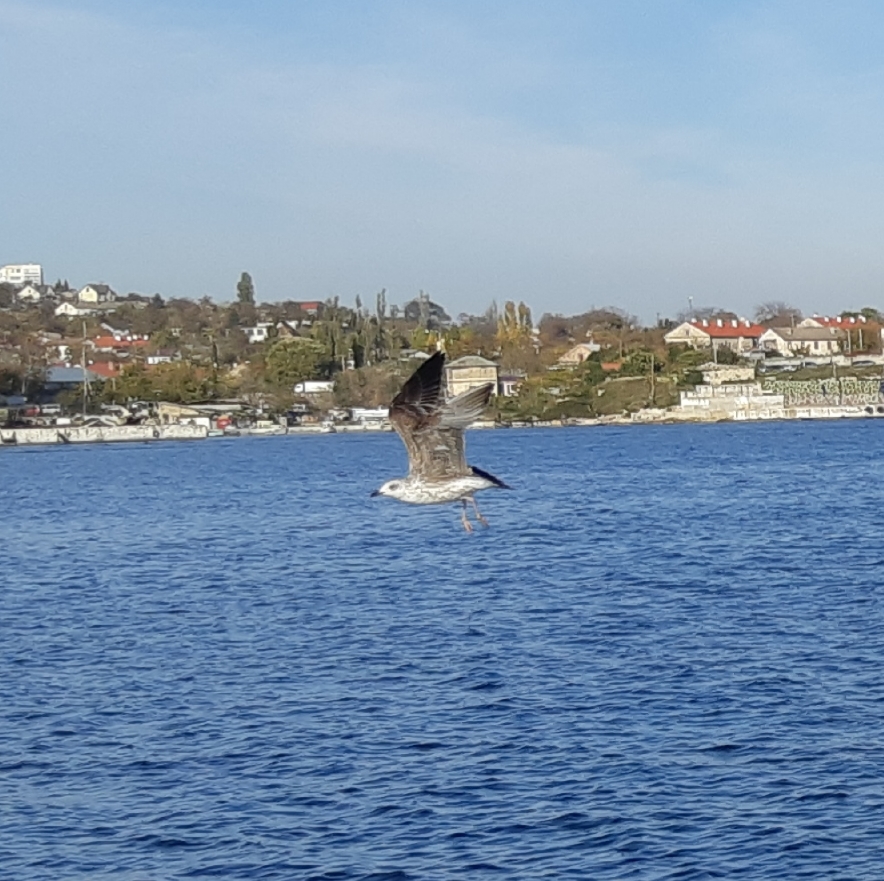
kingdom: Animalia
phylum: Chordata
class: Aves
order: Charadriiformes
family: Laridae
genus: Larus
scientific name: Larus michahellis
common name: Yellow-legged gull
